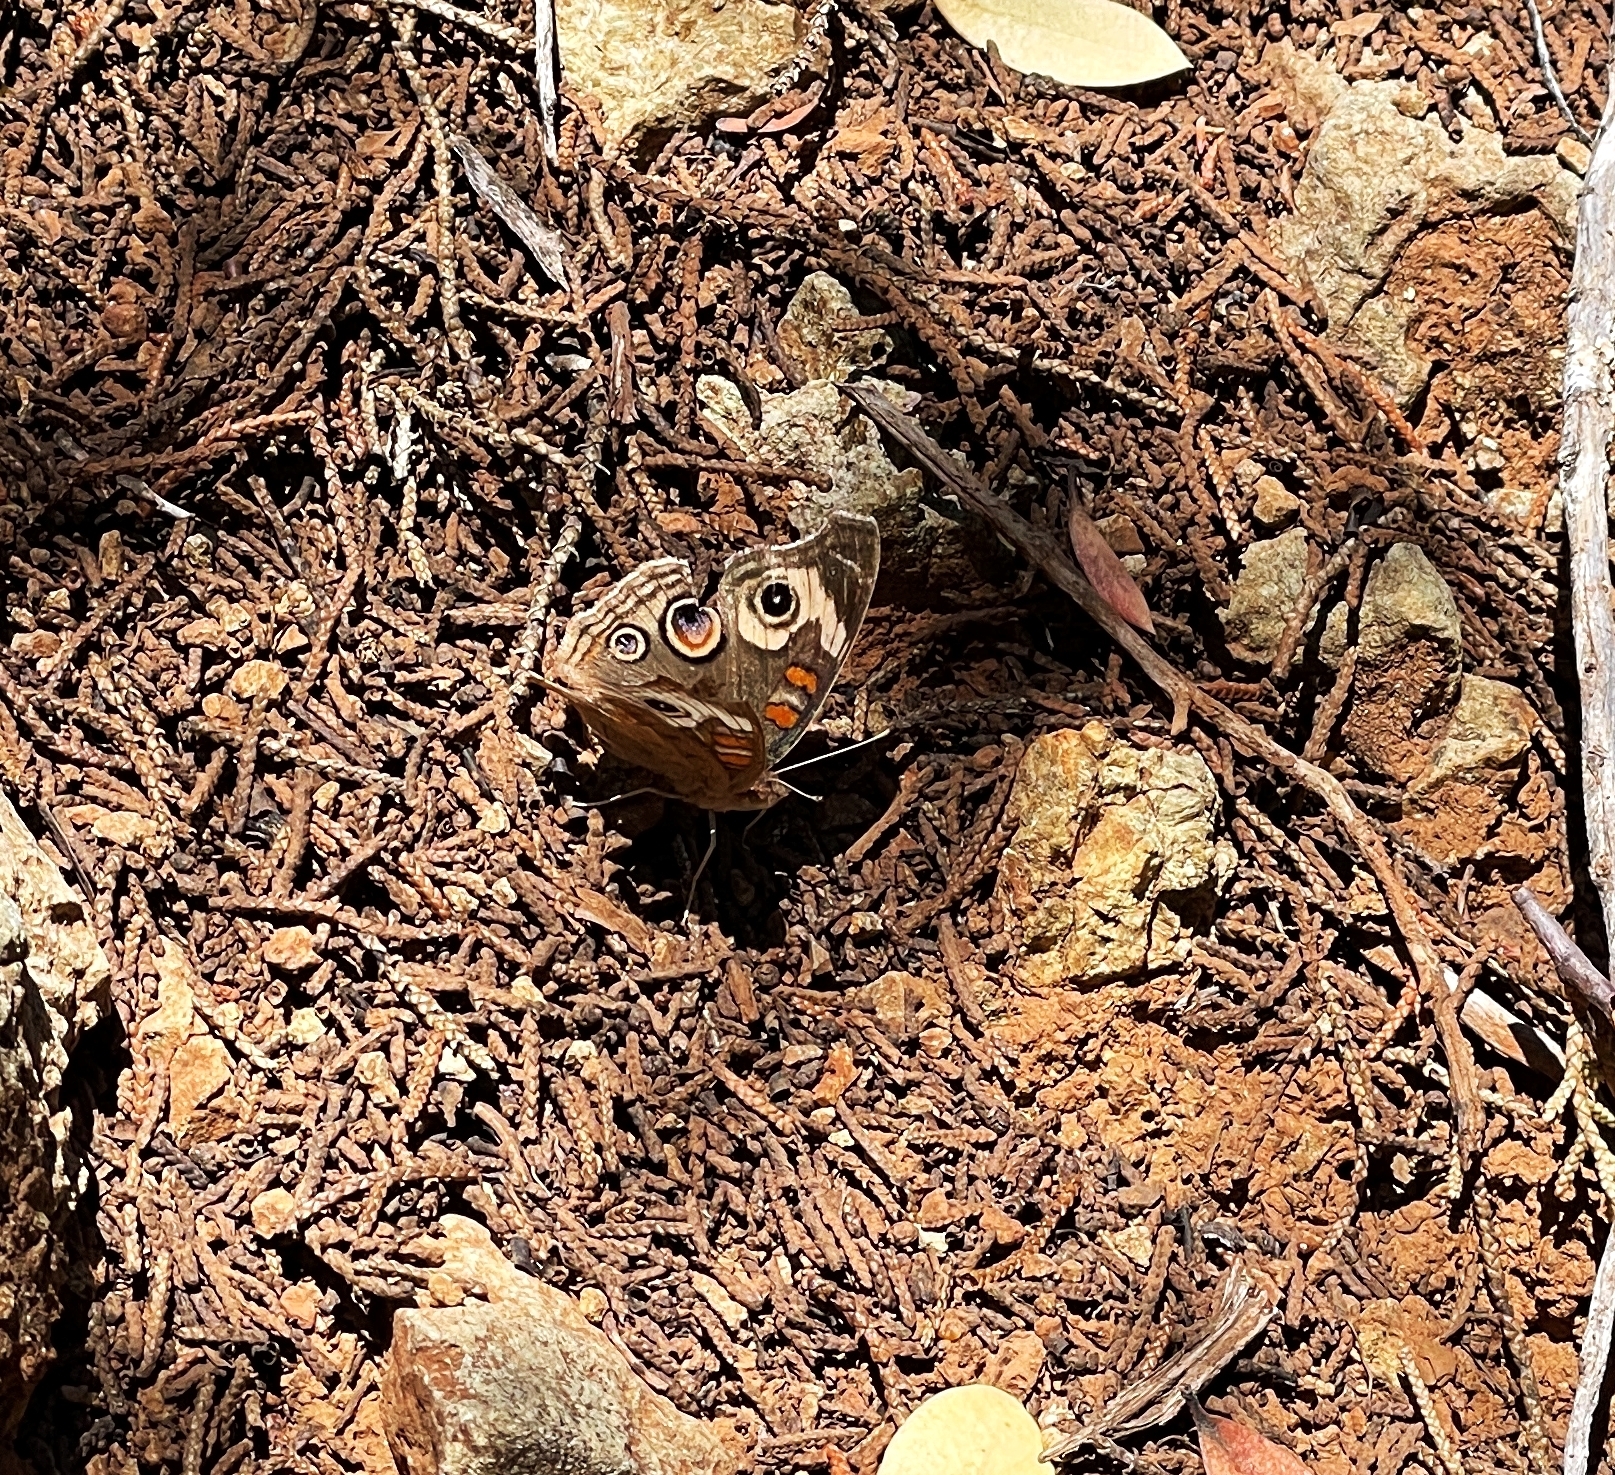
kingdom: Animalia
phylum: Arthropoda
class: Insecta
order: Lepidoptera
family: Nymphalidae
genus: Junonia
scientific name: Junonia grisea
